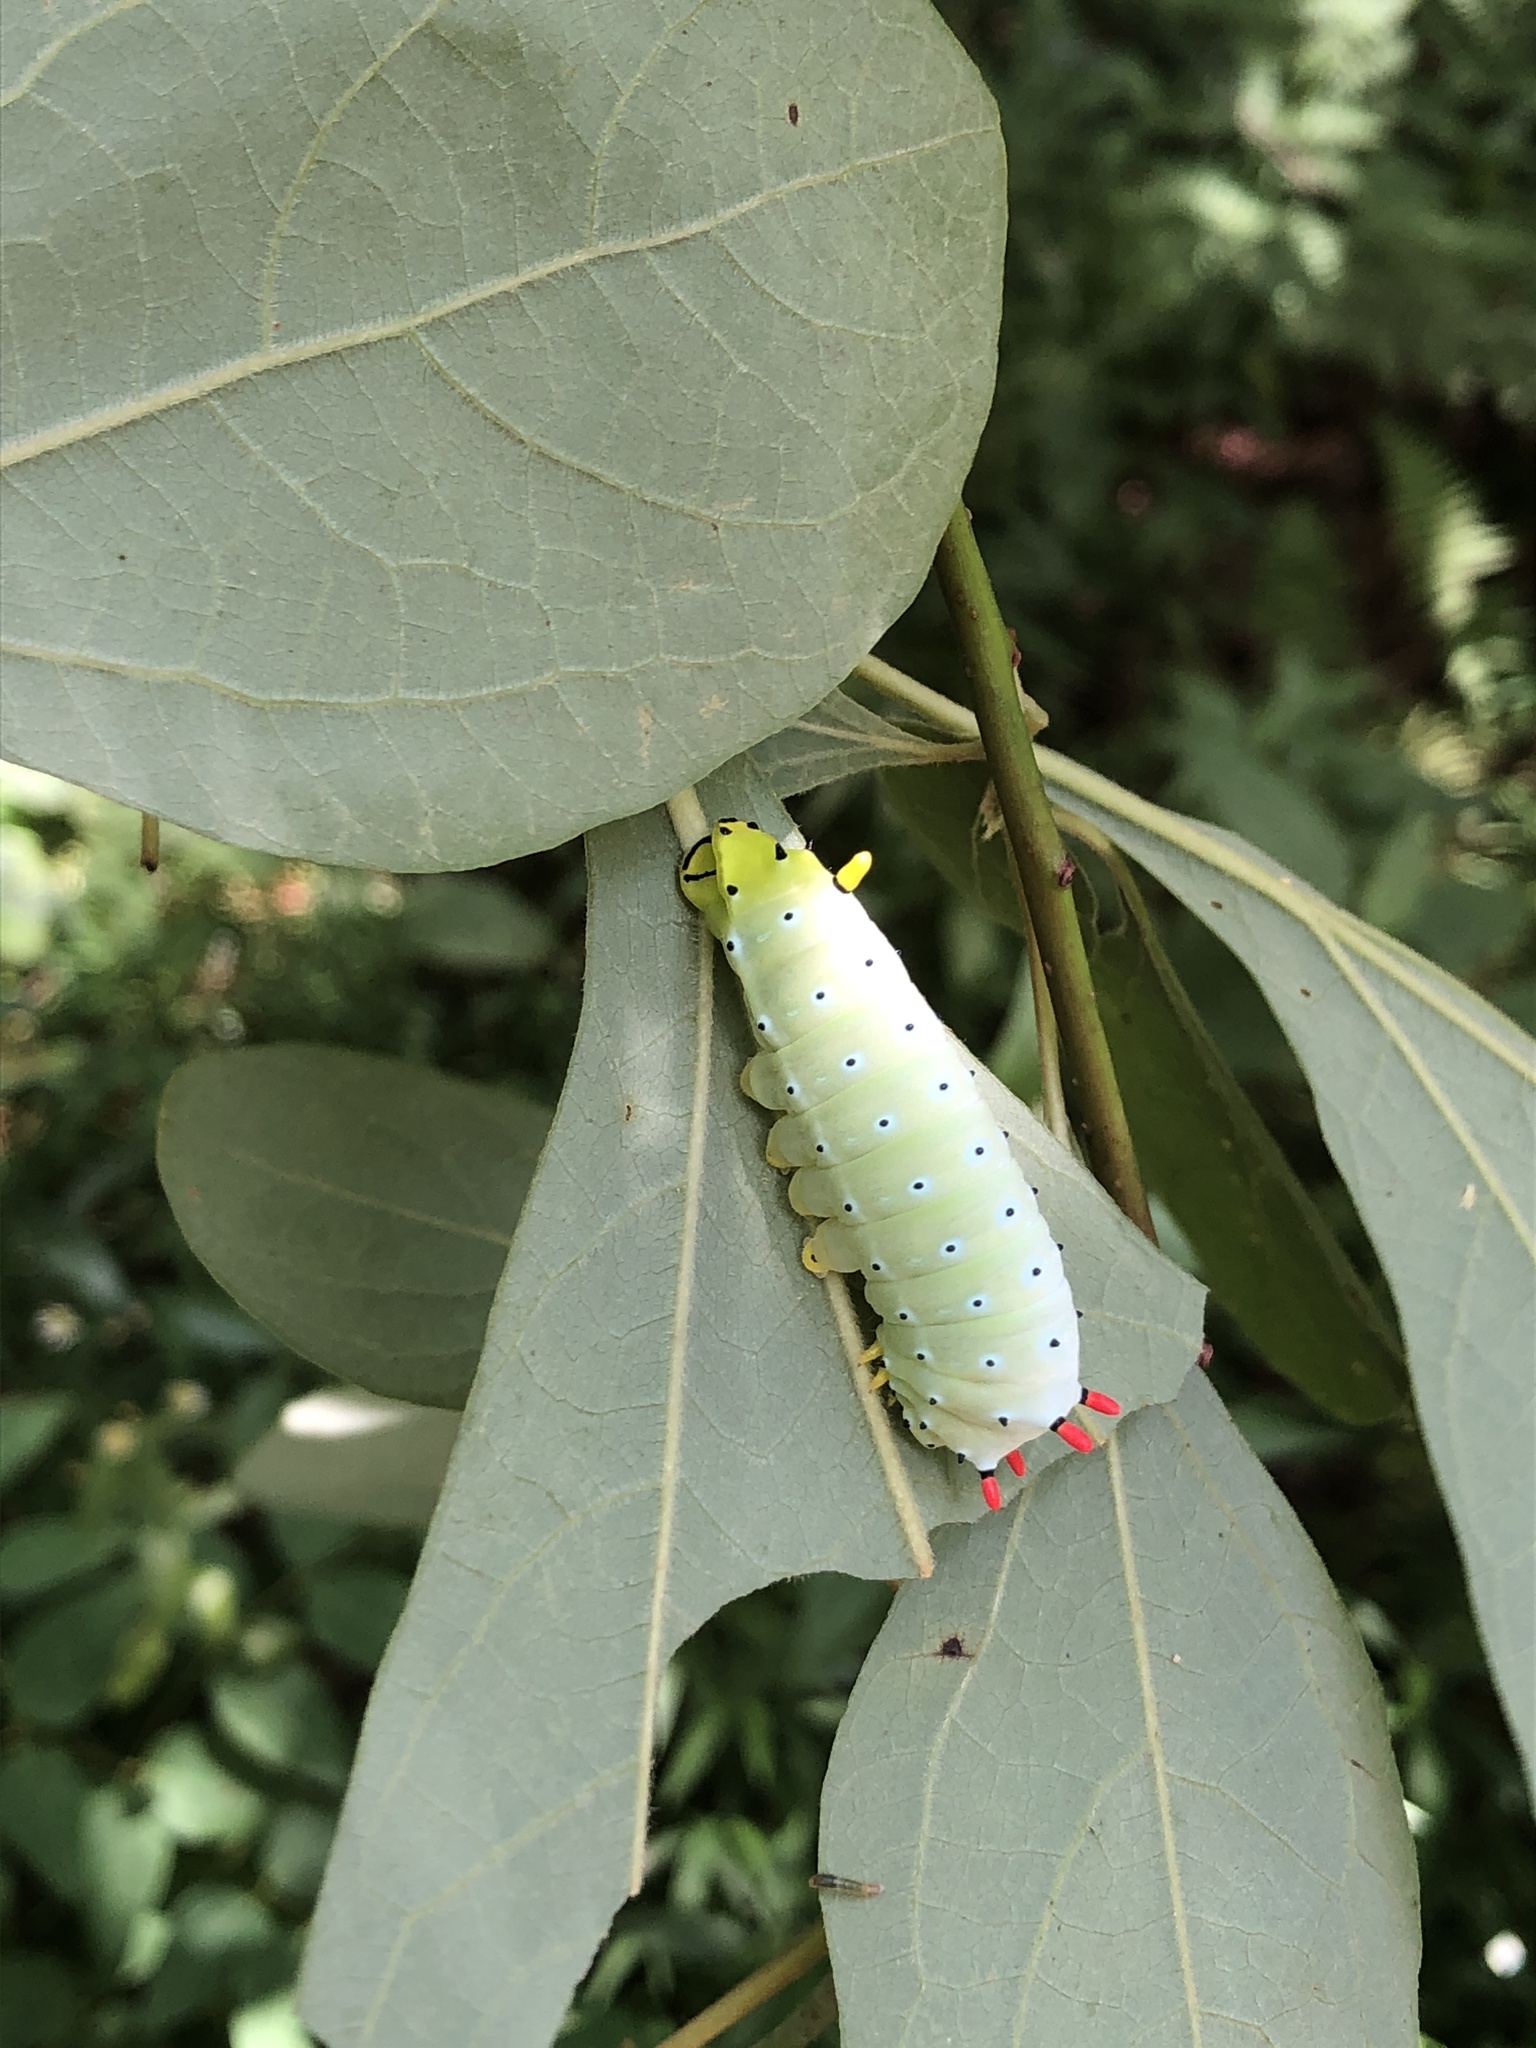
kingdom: Animalia
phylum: Arthropoda
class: Insecta
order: Lepidoptera
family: Saturniidae
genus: Callosamia
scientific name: Callosamia promethea
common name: Promethea silkmoth
